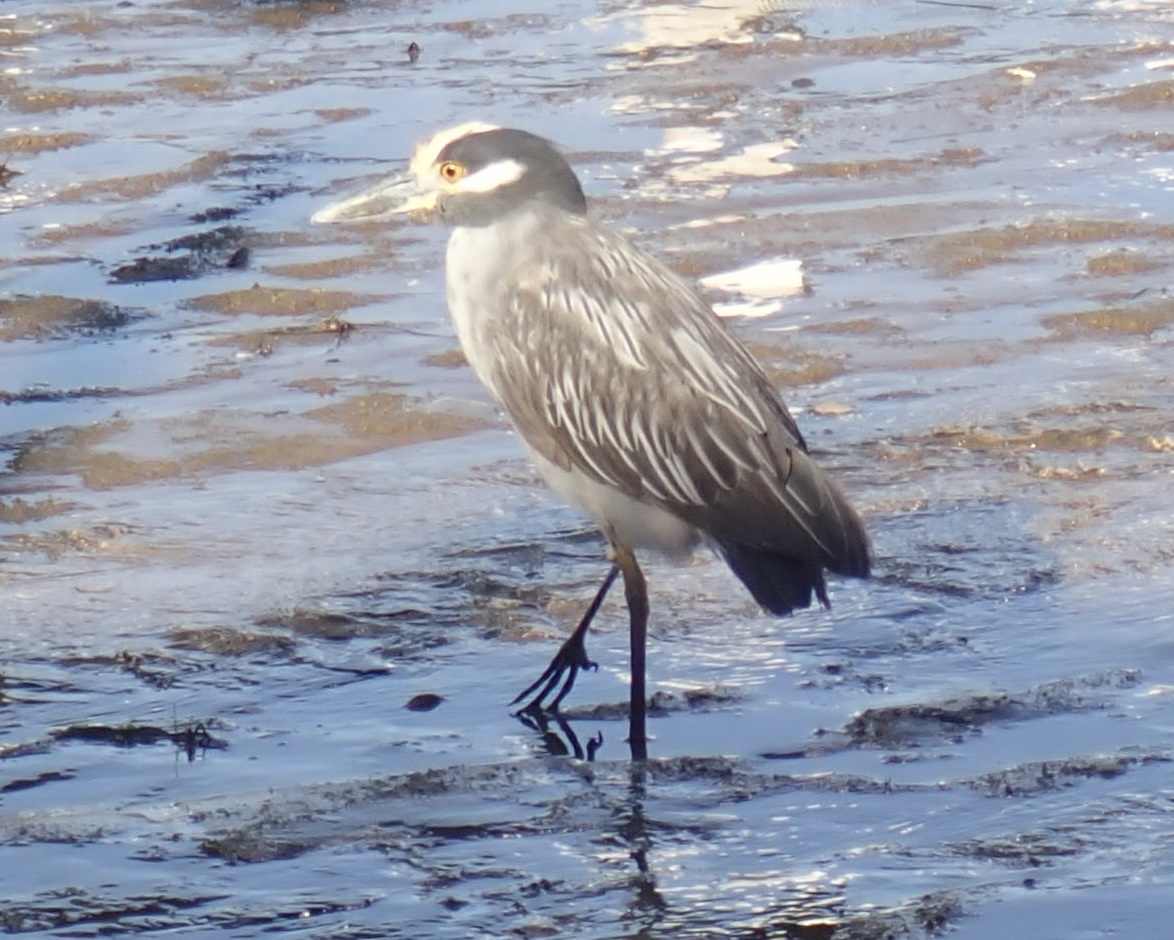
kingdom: Animalia
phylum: Chordata
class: Aves
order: Pelecaniformes
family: Ardeidae
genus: Nyctanassa
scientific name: Nyctanassa violacea
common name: Yellow-crowned night heron
